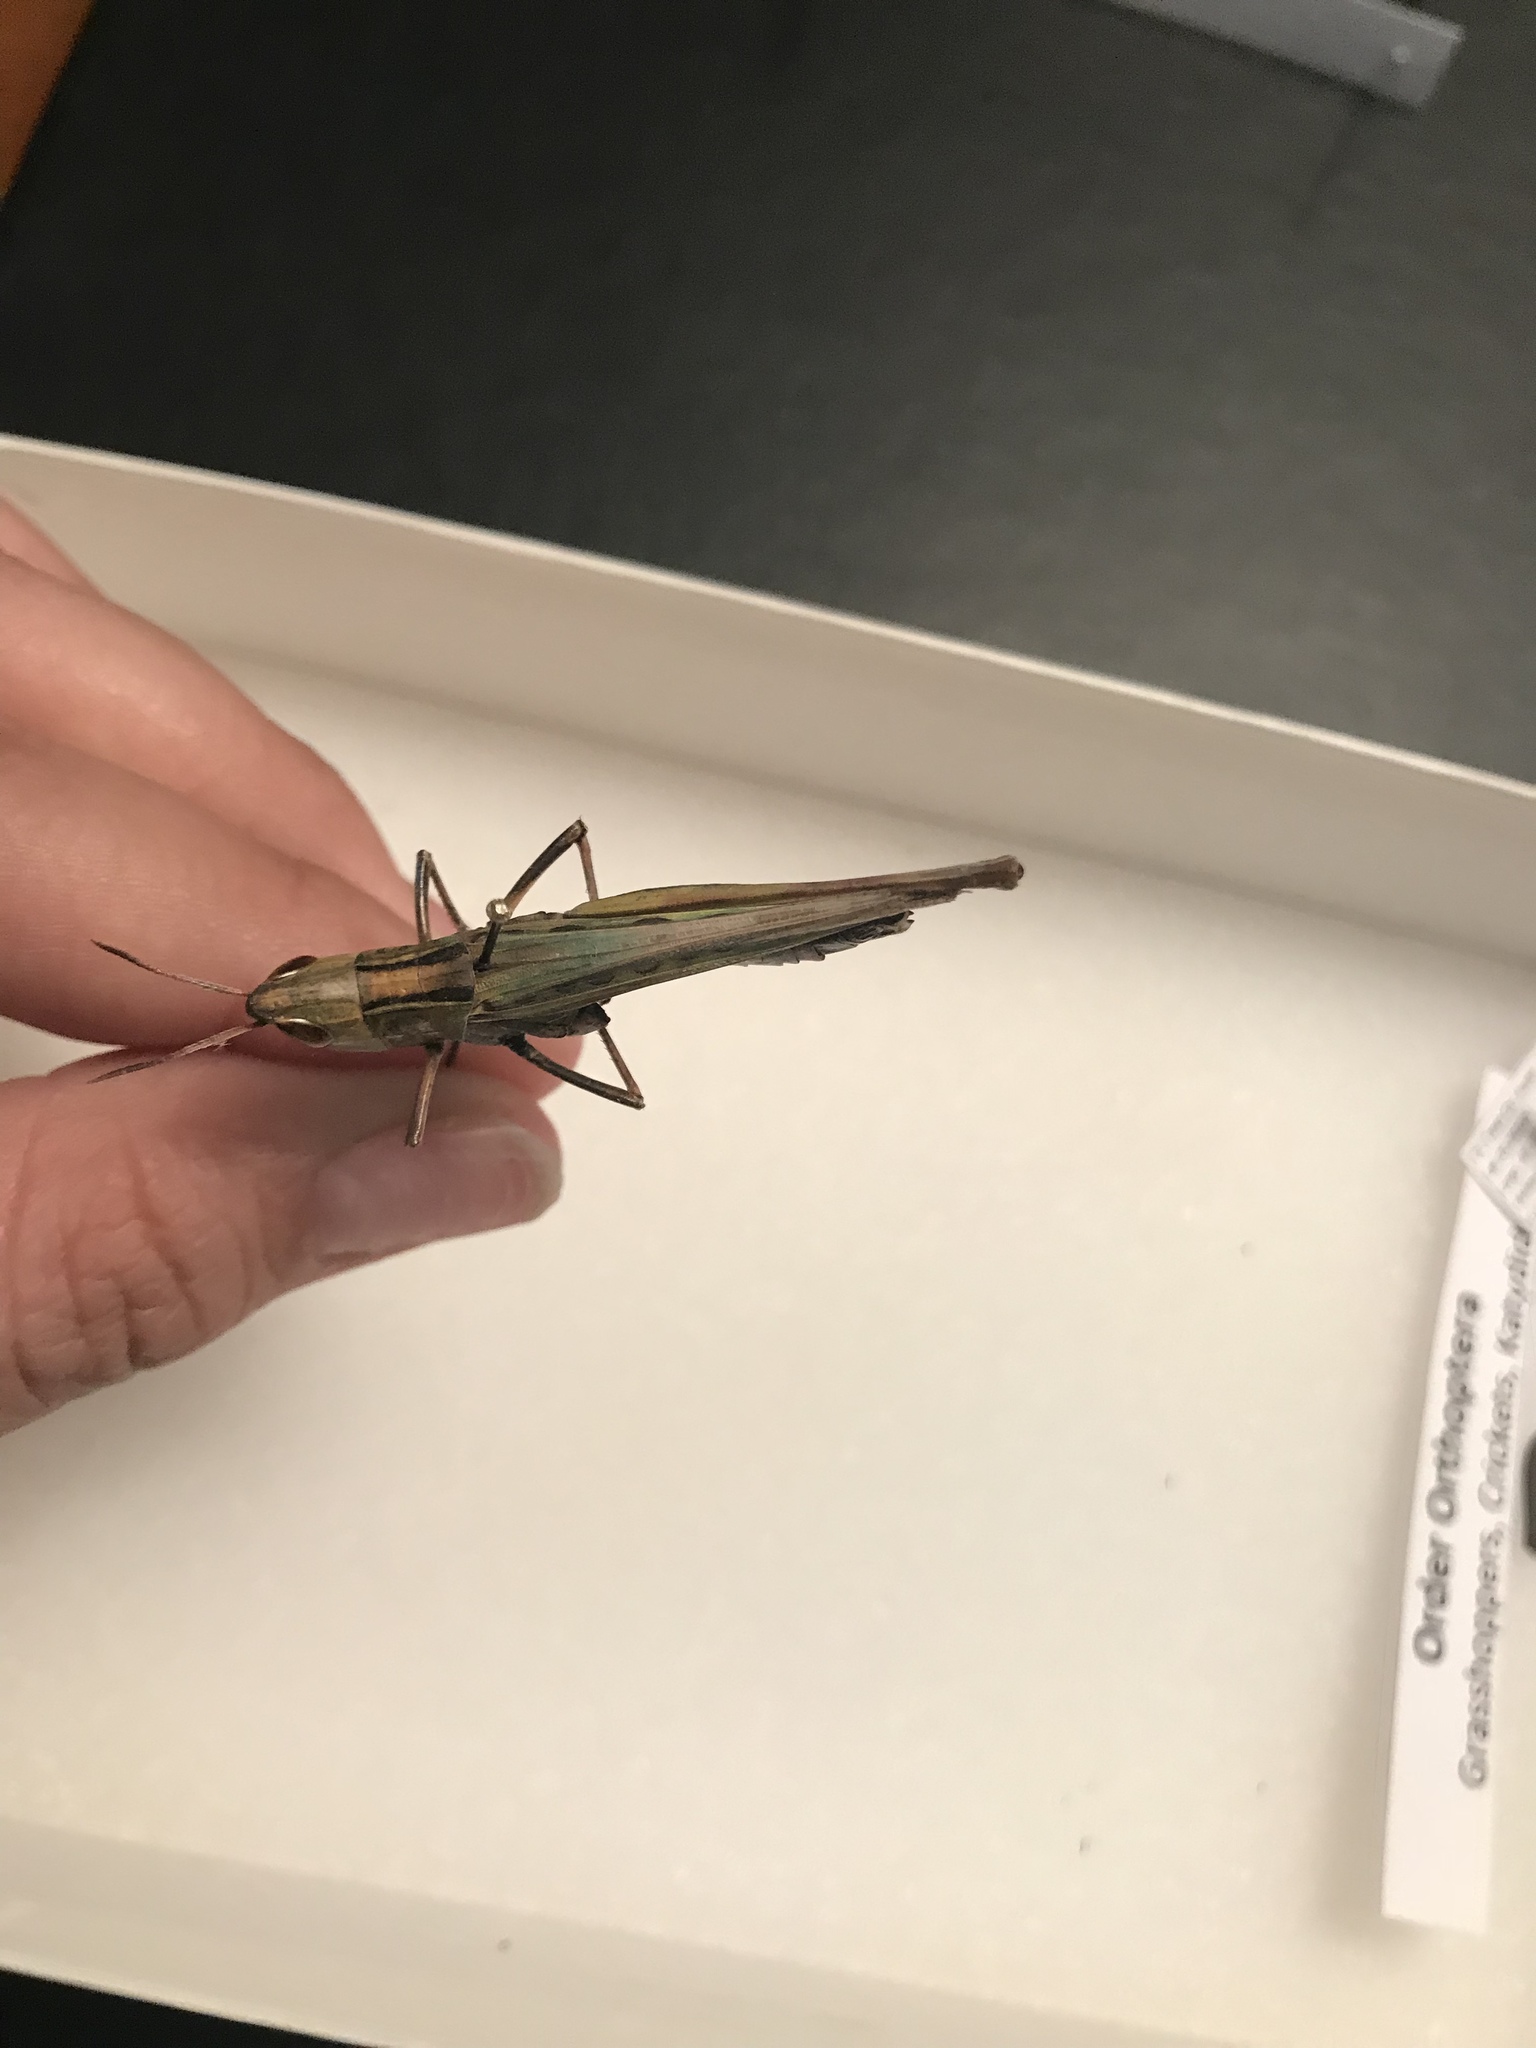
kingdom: Animalia
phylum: Arthropoda
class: Insecta
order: Orthoptera
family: Acrididae
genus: Syrbula
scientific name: Syrbula admirabilis
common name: Handsome grasshopper
